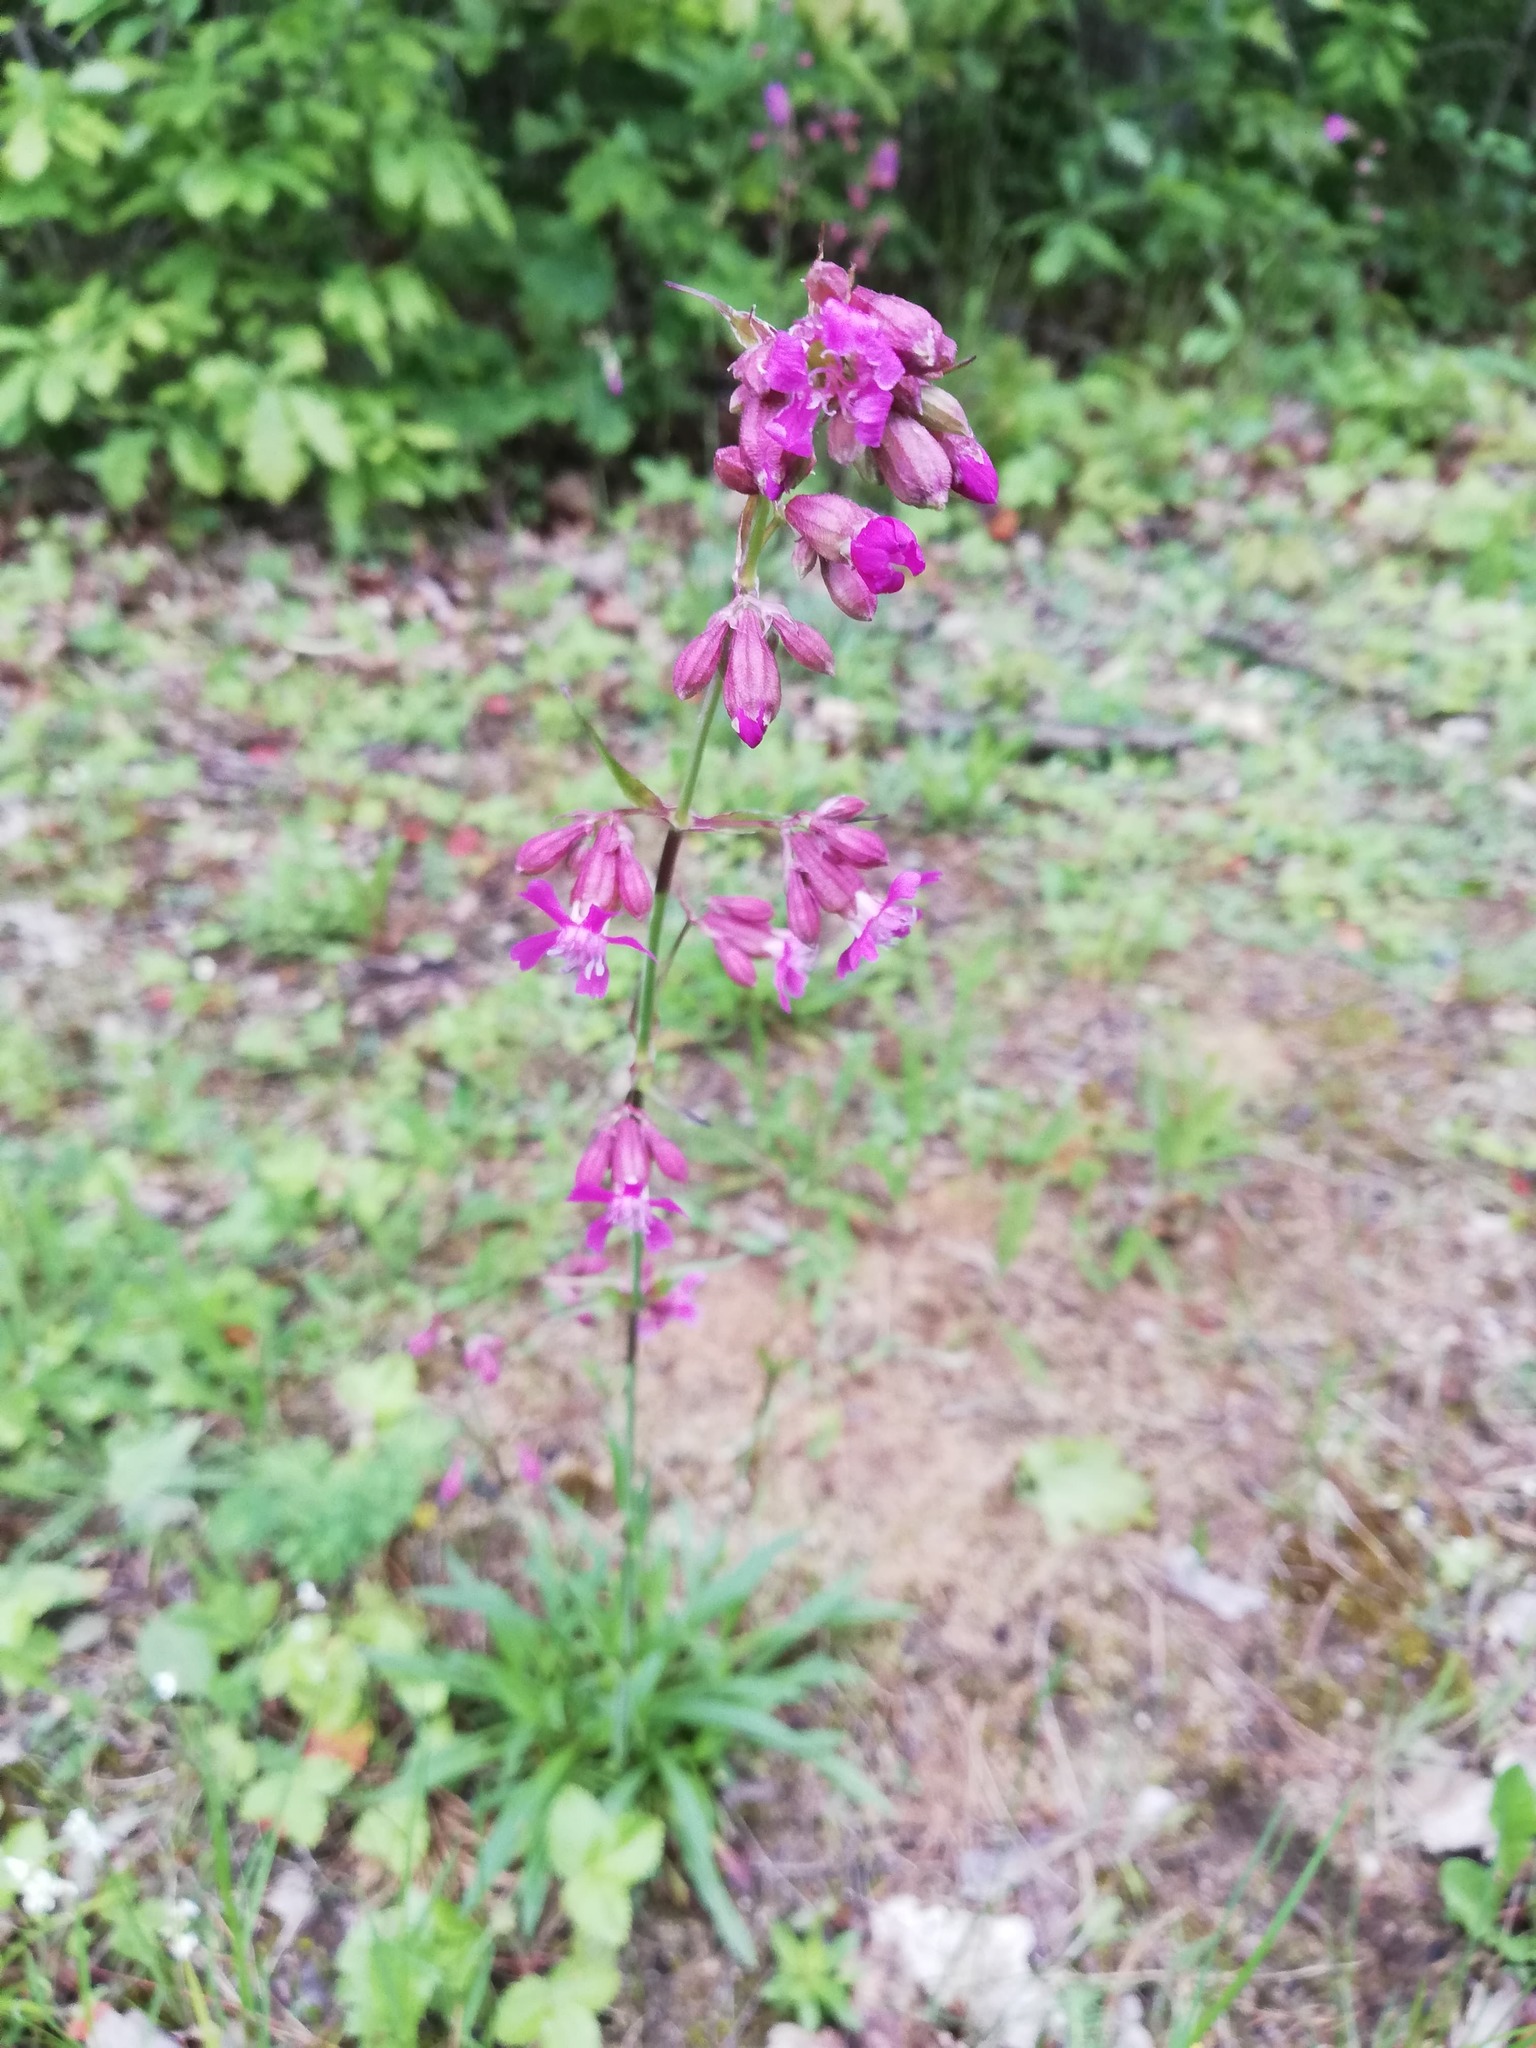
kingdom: Plantae
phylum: Tracheophyta
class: Magnoliopsida
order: Caryophyllales
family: Caryophyllaceae
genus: Viscaria
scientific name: Viscaria vulgaris
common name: Clammy campion
